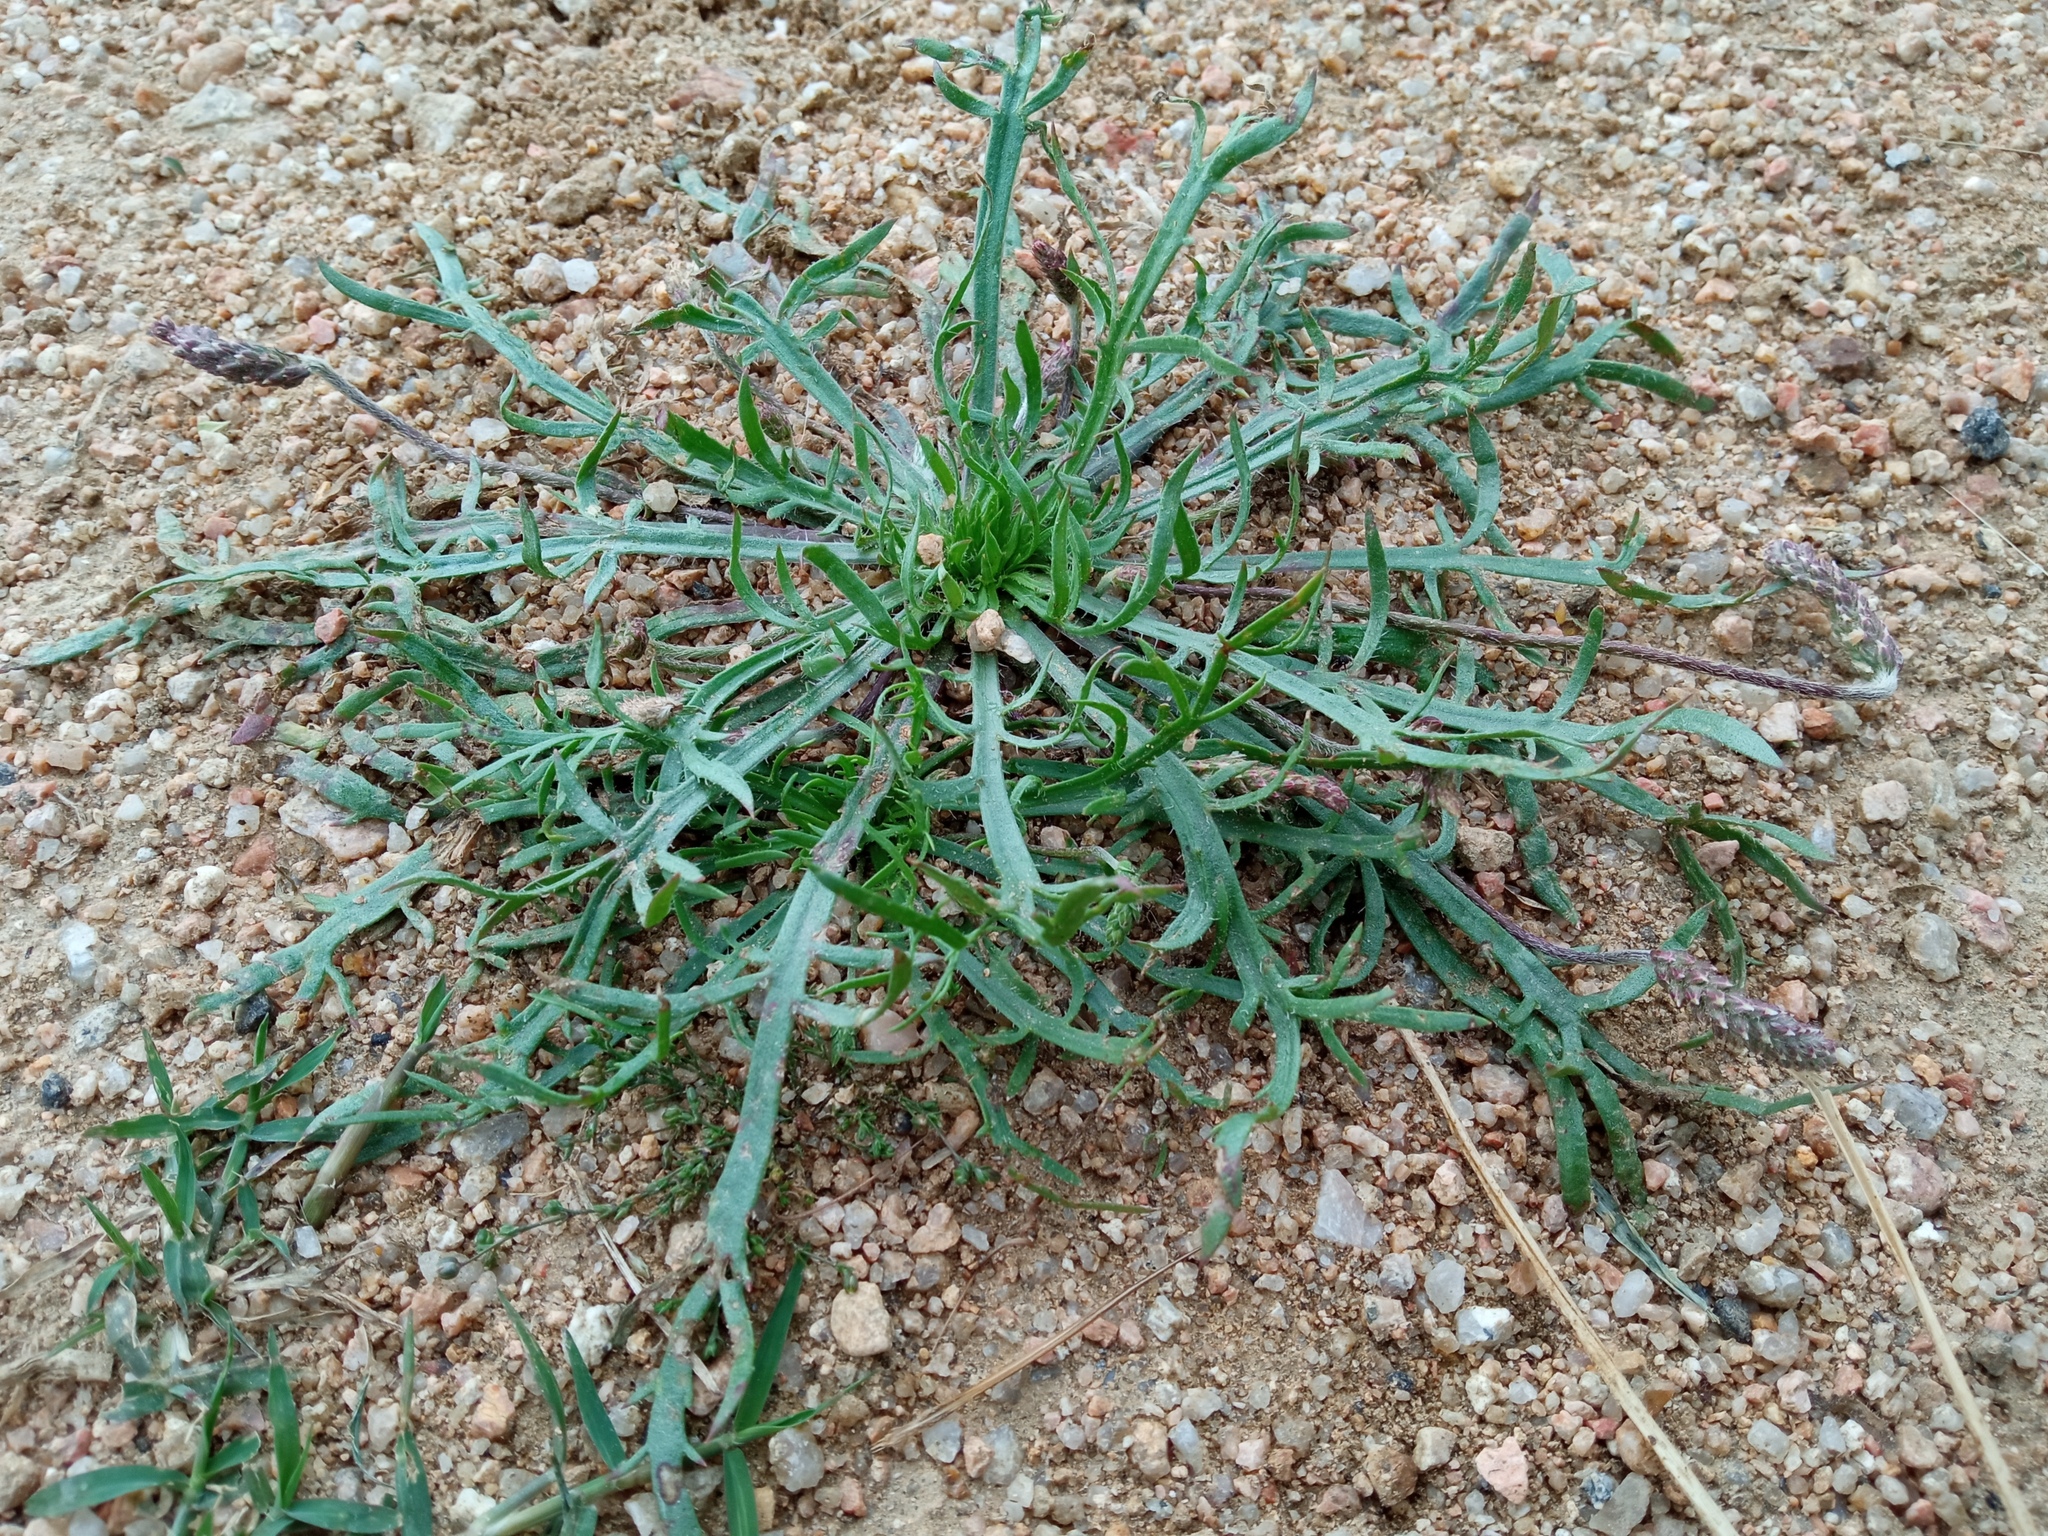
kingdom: Plantae
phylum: Tracheophyta
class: Magnoliopsida
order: Lamiales
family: Plantaginaceae
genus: Plantago
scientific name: Plantago coronopus
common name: Buck's-horn plantain
